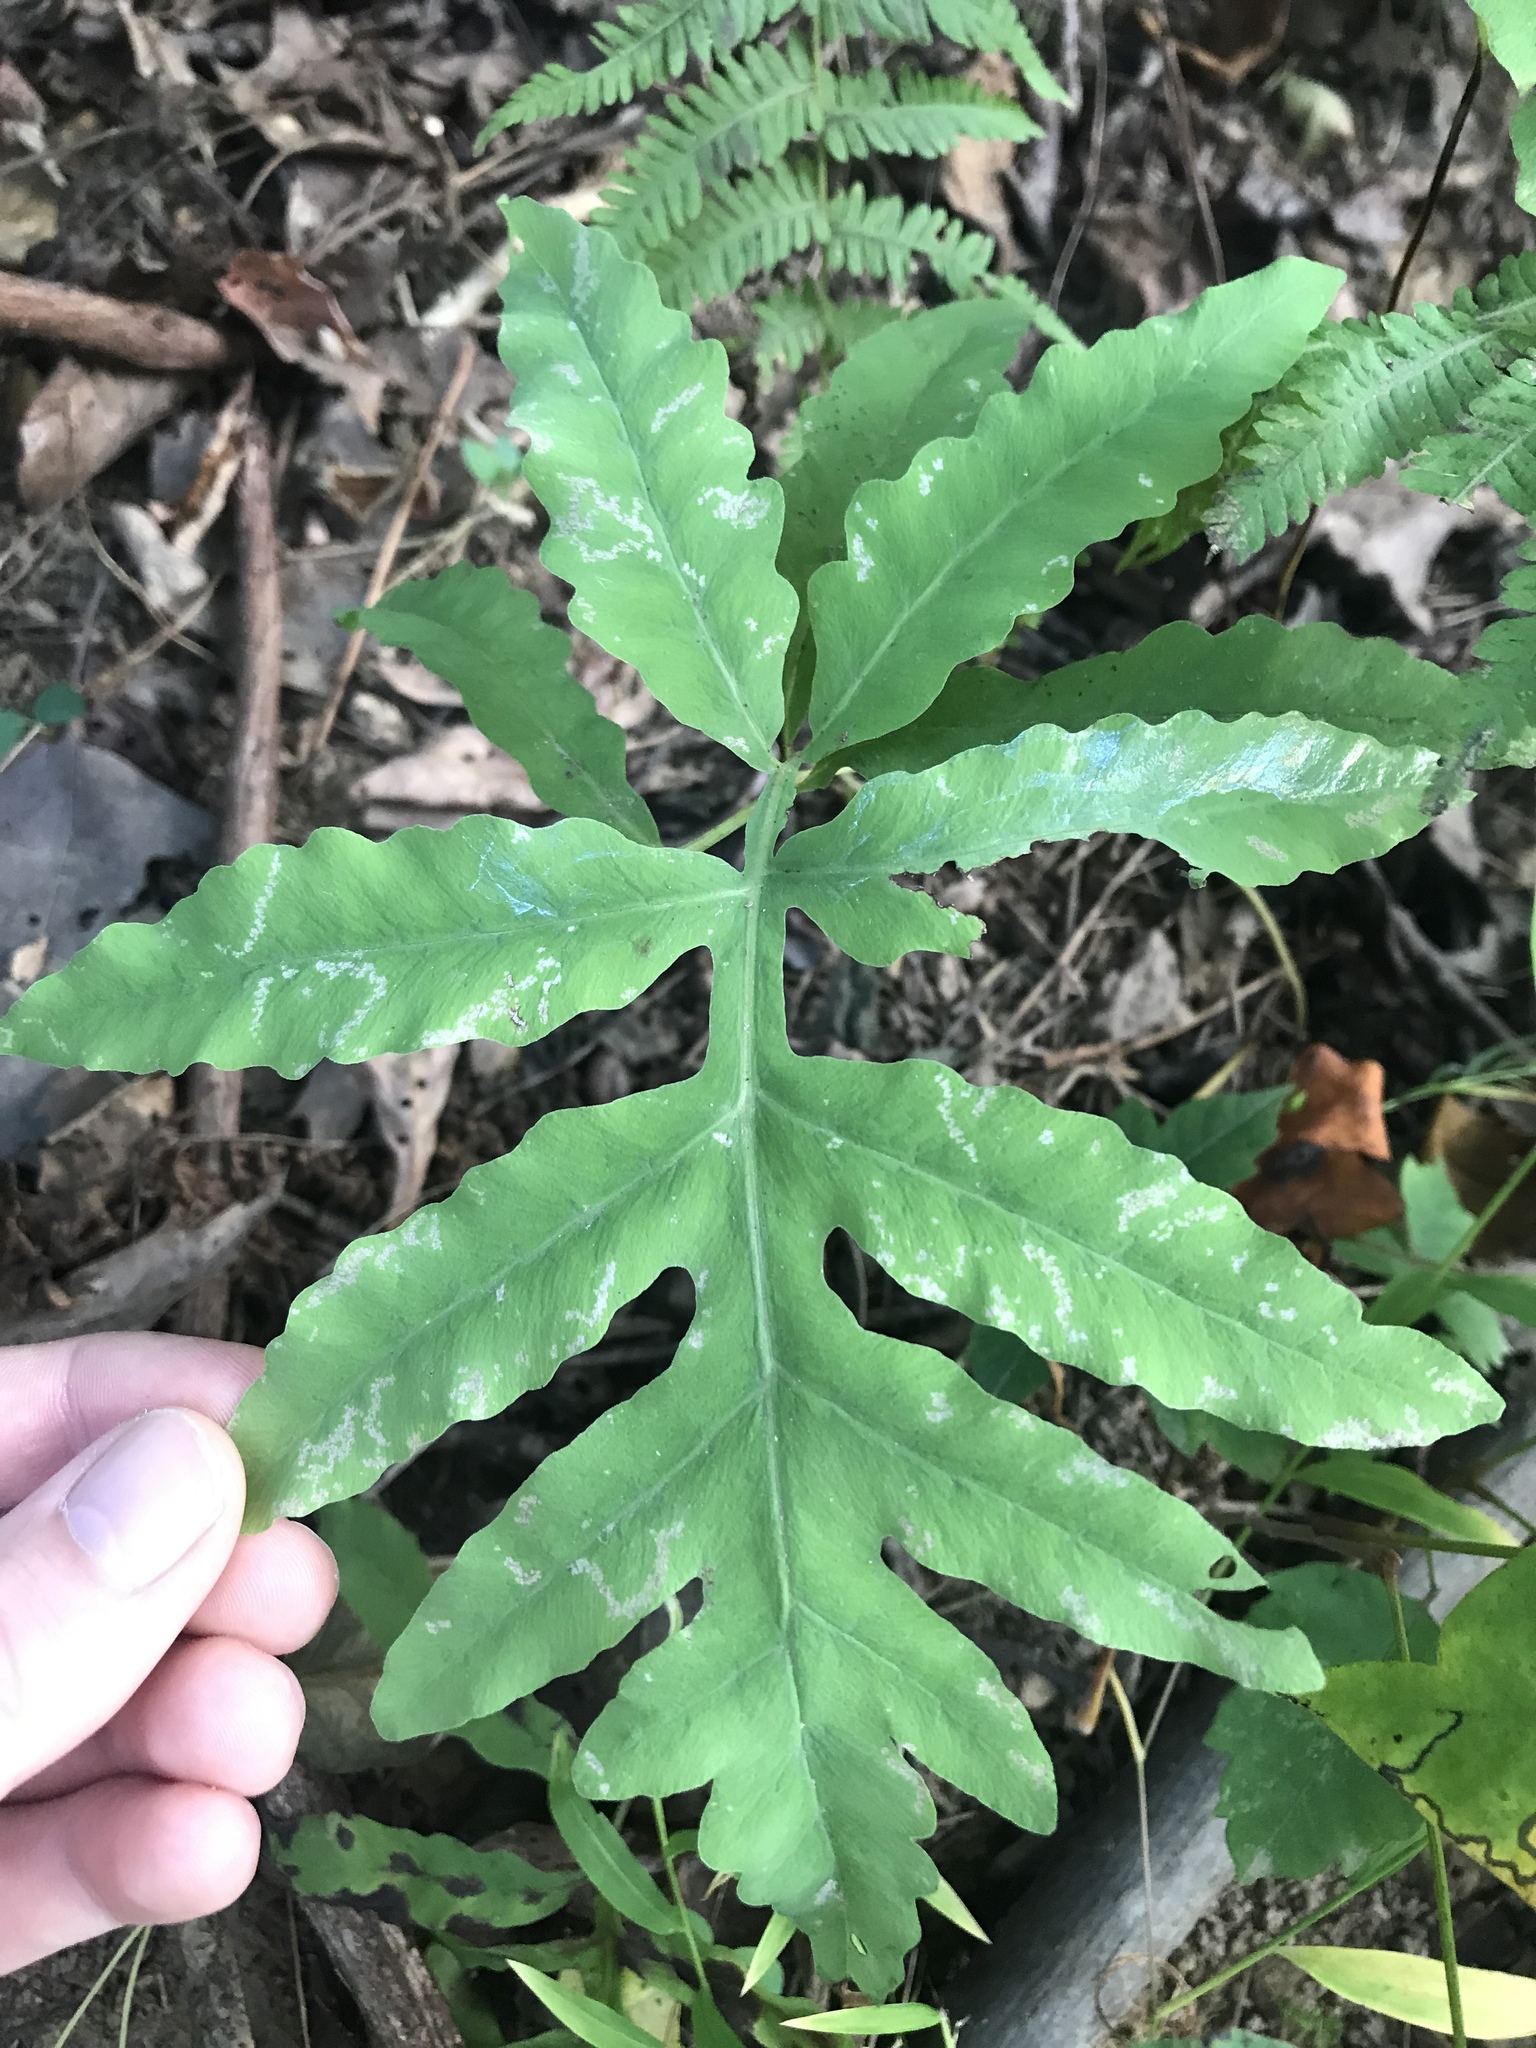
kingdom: Plantae
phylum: Tracheophyta
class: Polypodiopsida
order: Polypodiales
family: Onocleaceae
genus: Onoclea
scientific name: Onoclea sensibilis
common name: Sensitive fern
